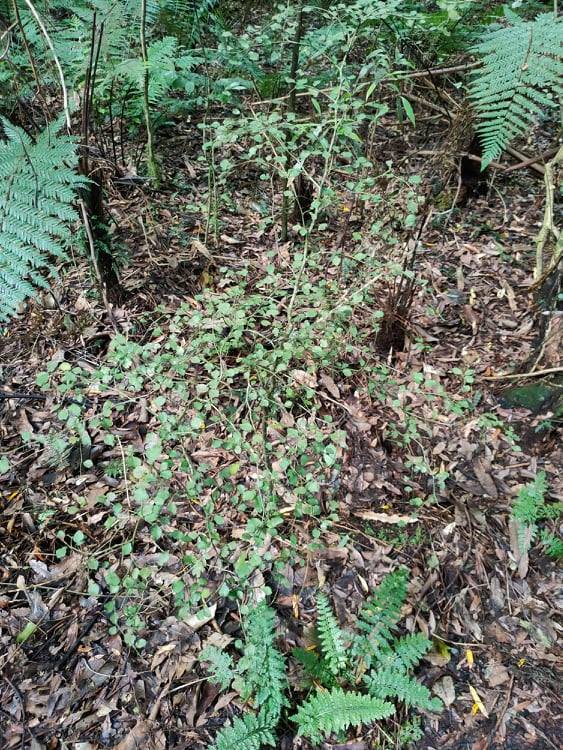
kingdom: Plantae
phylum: Tracheophyta
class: Magnoliopsida
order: Rosales
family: Moraceae
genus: Paratrophis
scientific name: Paratrophis microphylla
